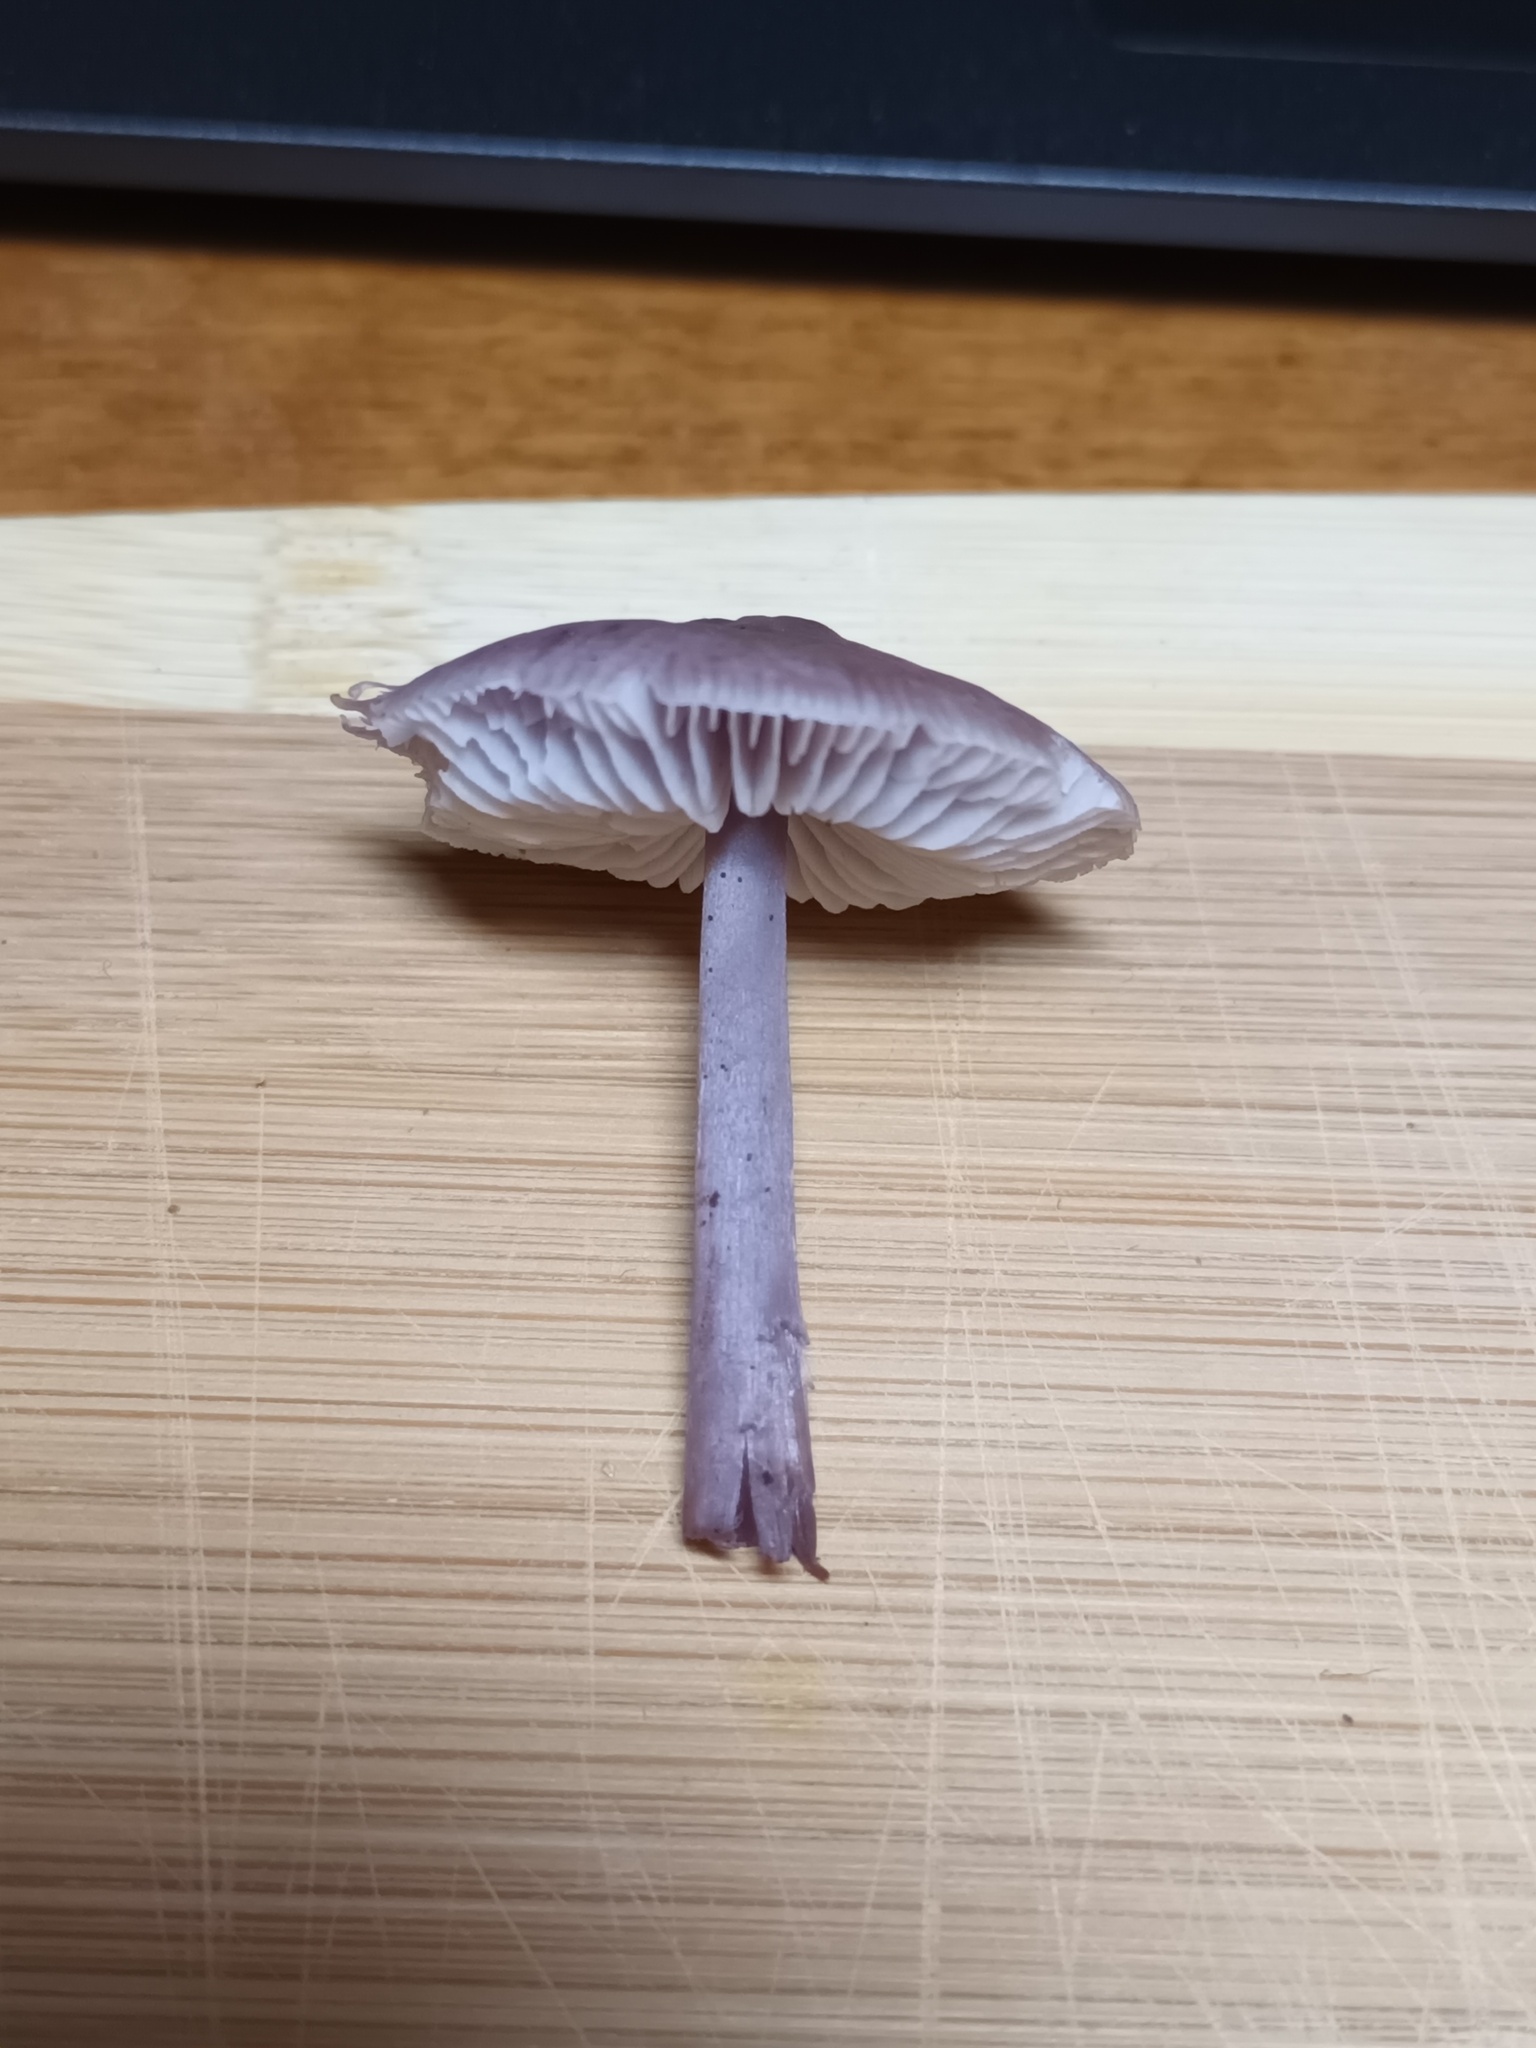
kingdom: Fungi
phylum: Basidiomycota
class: Agaricomycetes
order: Agaricales
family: Mycenaceae
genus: Mycena
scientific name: Mycena pura
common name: Lilac bonnet
